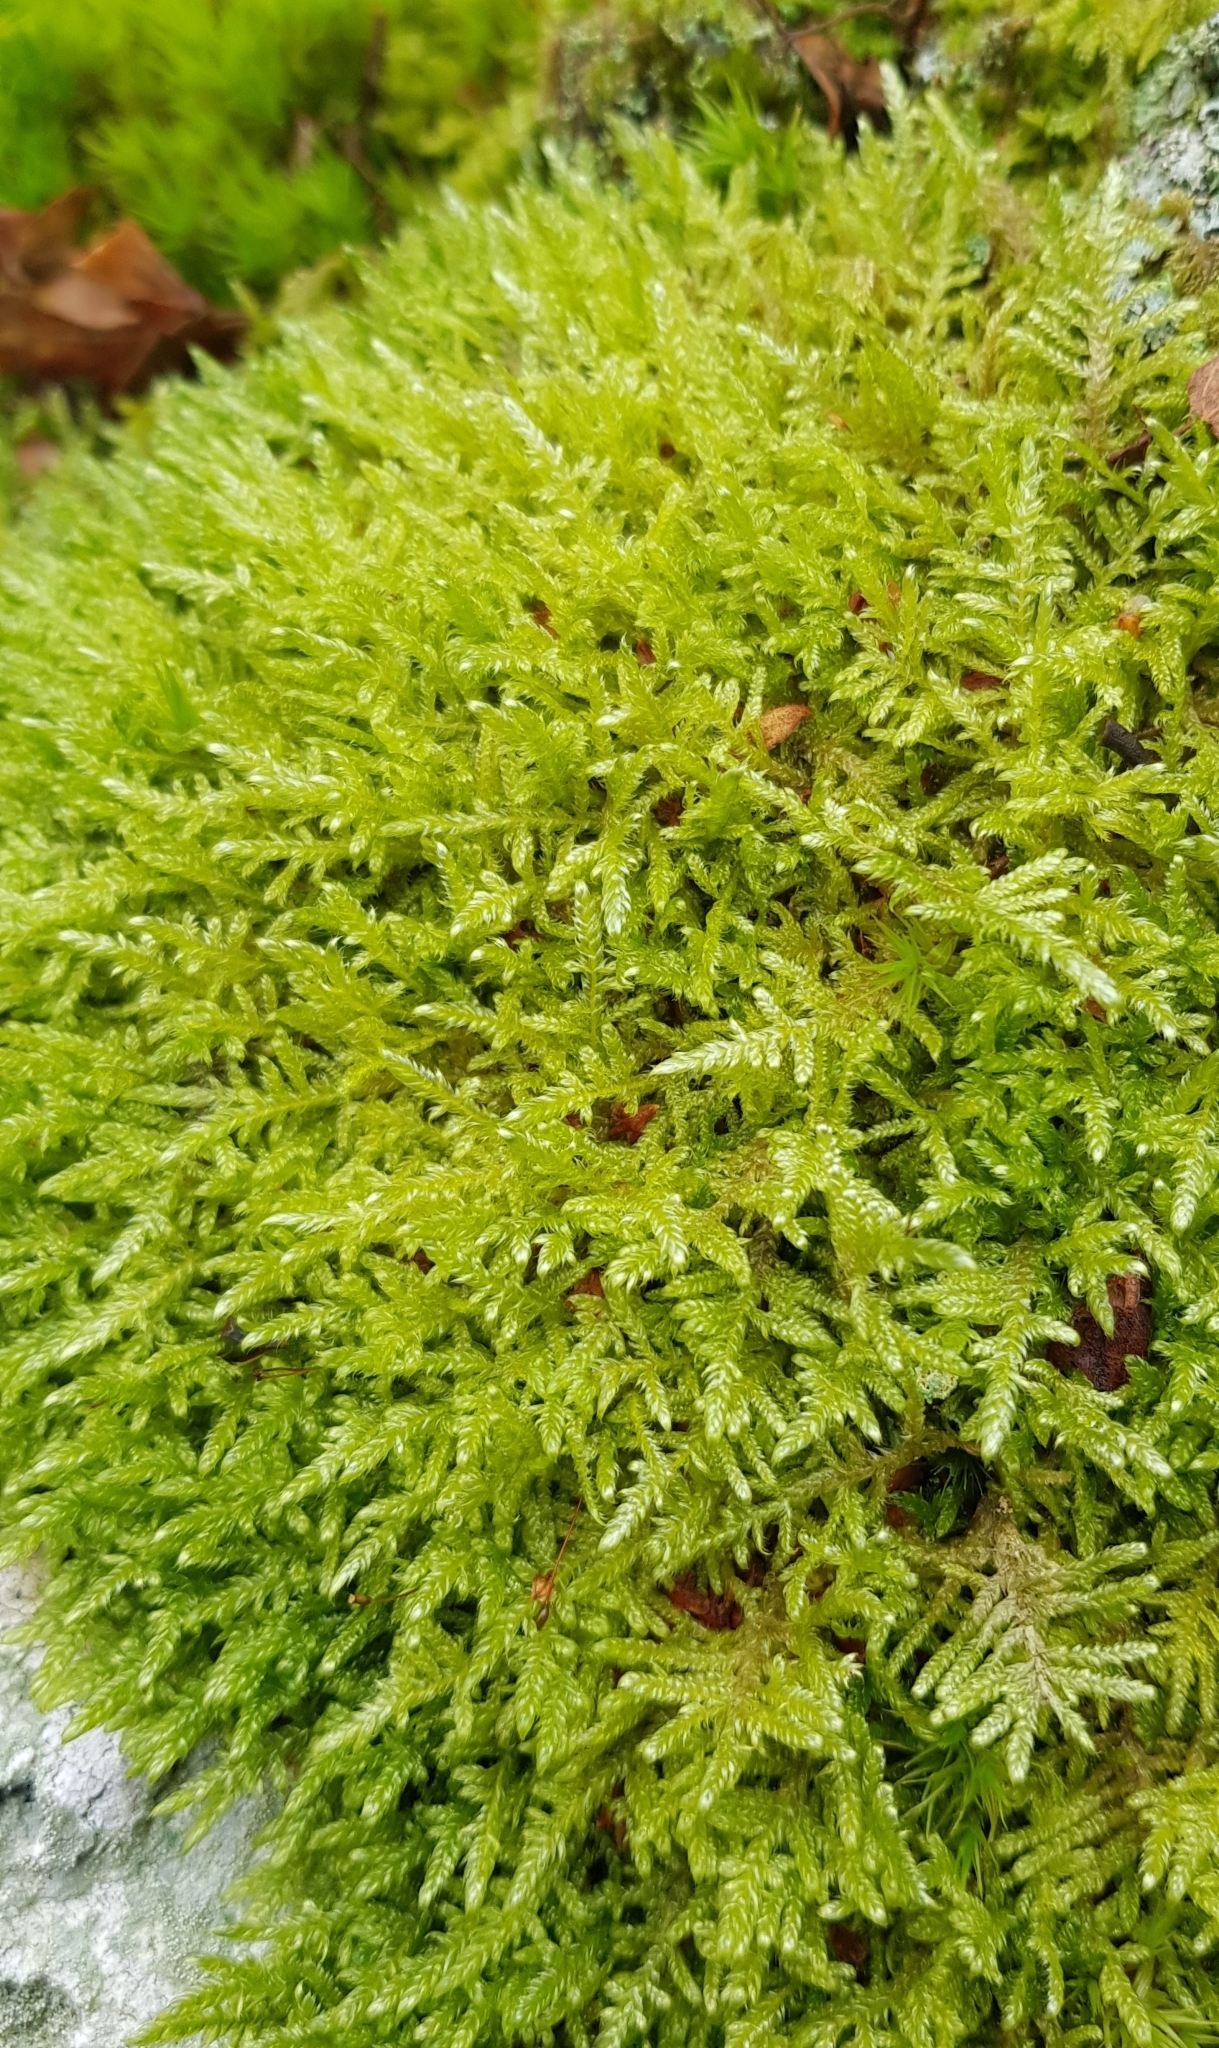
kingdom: Plantae
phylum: Bryophyta
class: Bryopsida
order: Hypnales
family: Hypnaceae
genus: Hypnum
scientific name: Hypnum jutlandicum
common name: Heath plait-moss
